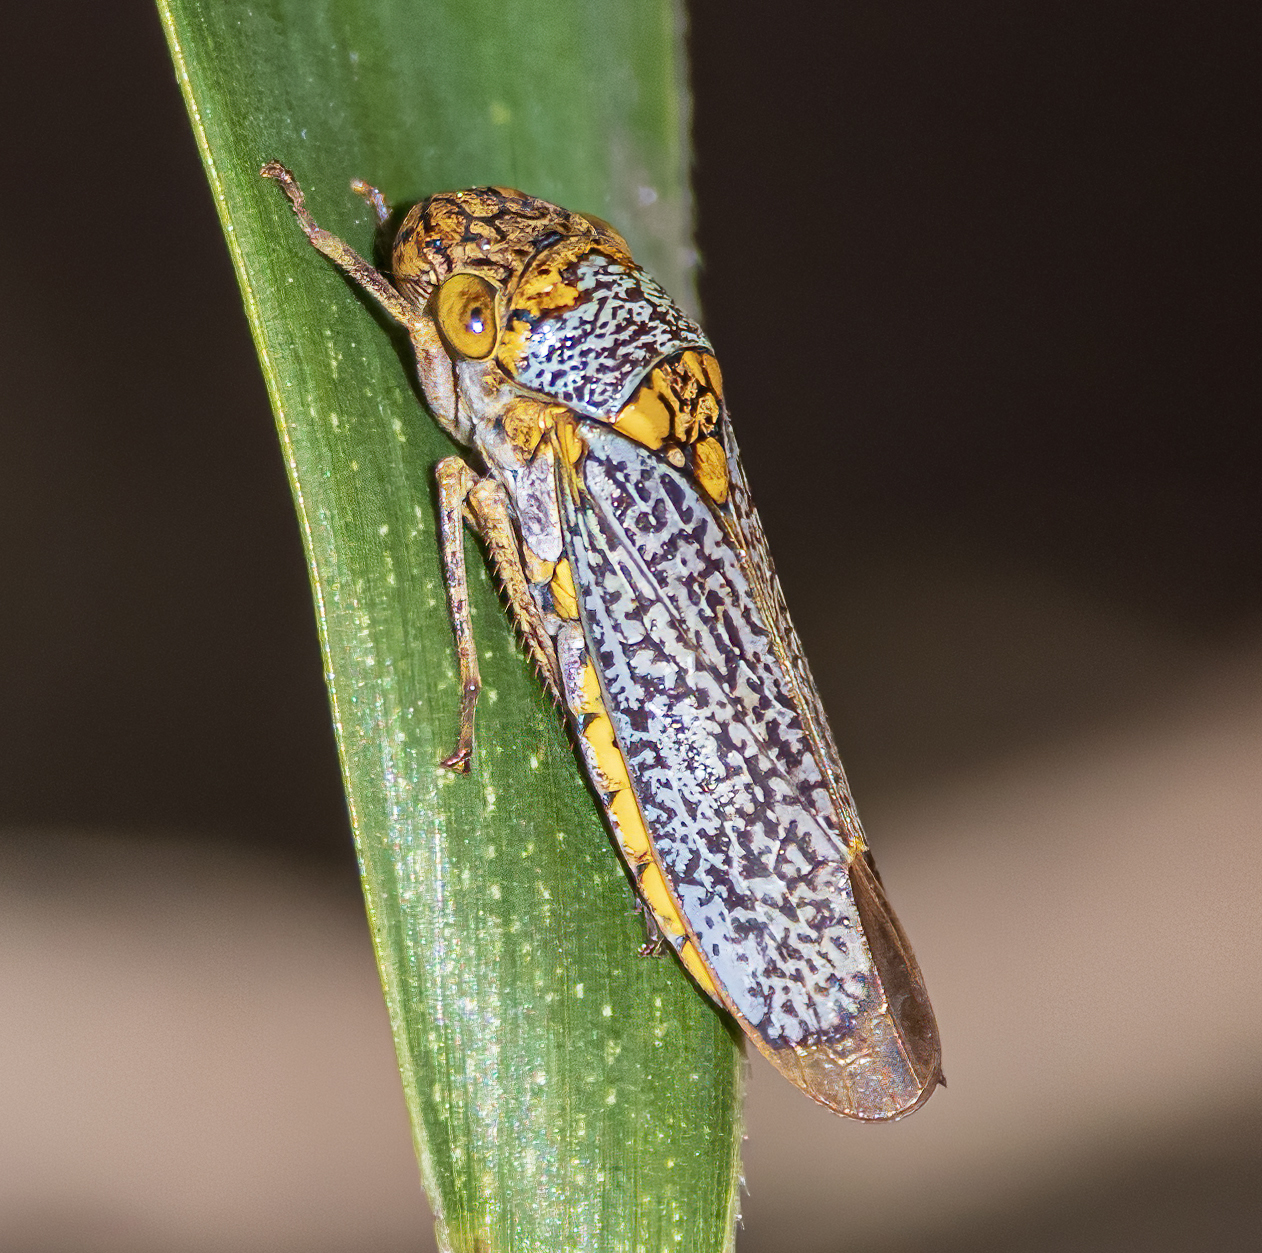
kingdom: Animalia
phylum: Arthropoda
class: Insecta
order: Hemiptera
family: Cicadellidae
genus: Oncometopia
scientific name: Oncometopia orbona
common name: Broad-headed sharpshooter
